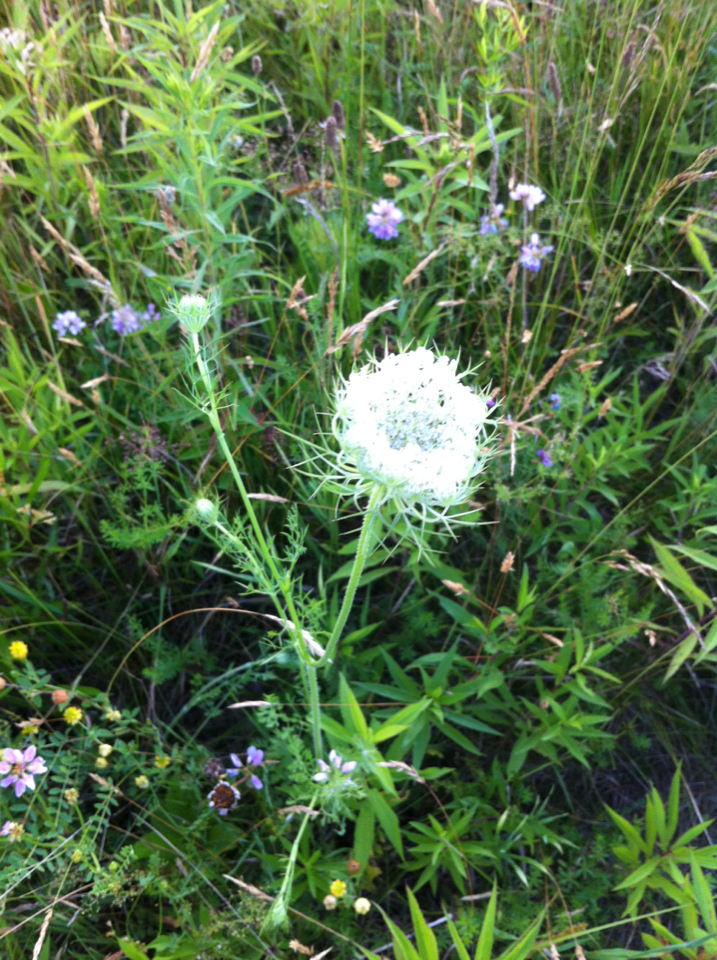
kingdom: Plantae
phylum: Tracheophyta
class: Magnoliopsida
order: Apiales
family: Apiaceae
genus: Daucus
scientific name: Daucus carota
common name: Wild carrot
